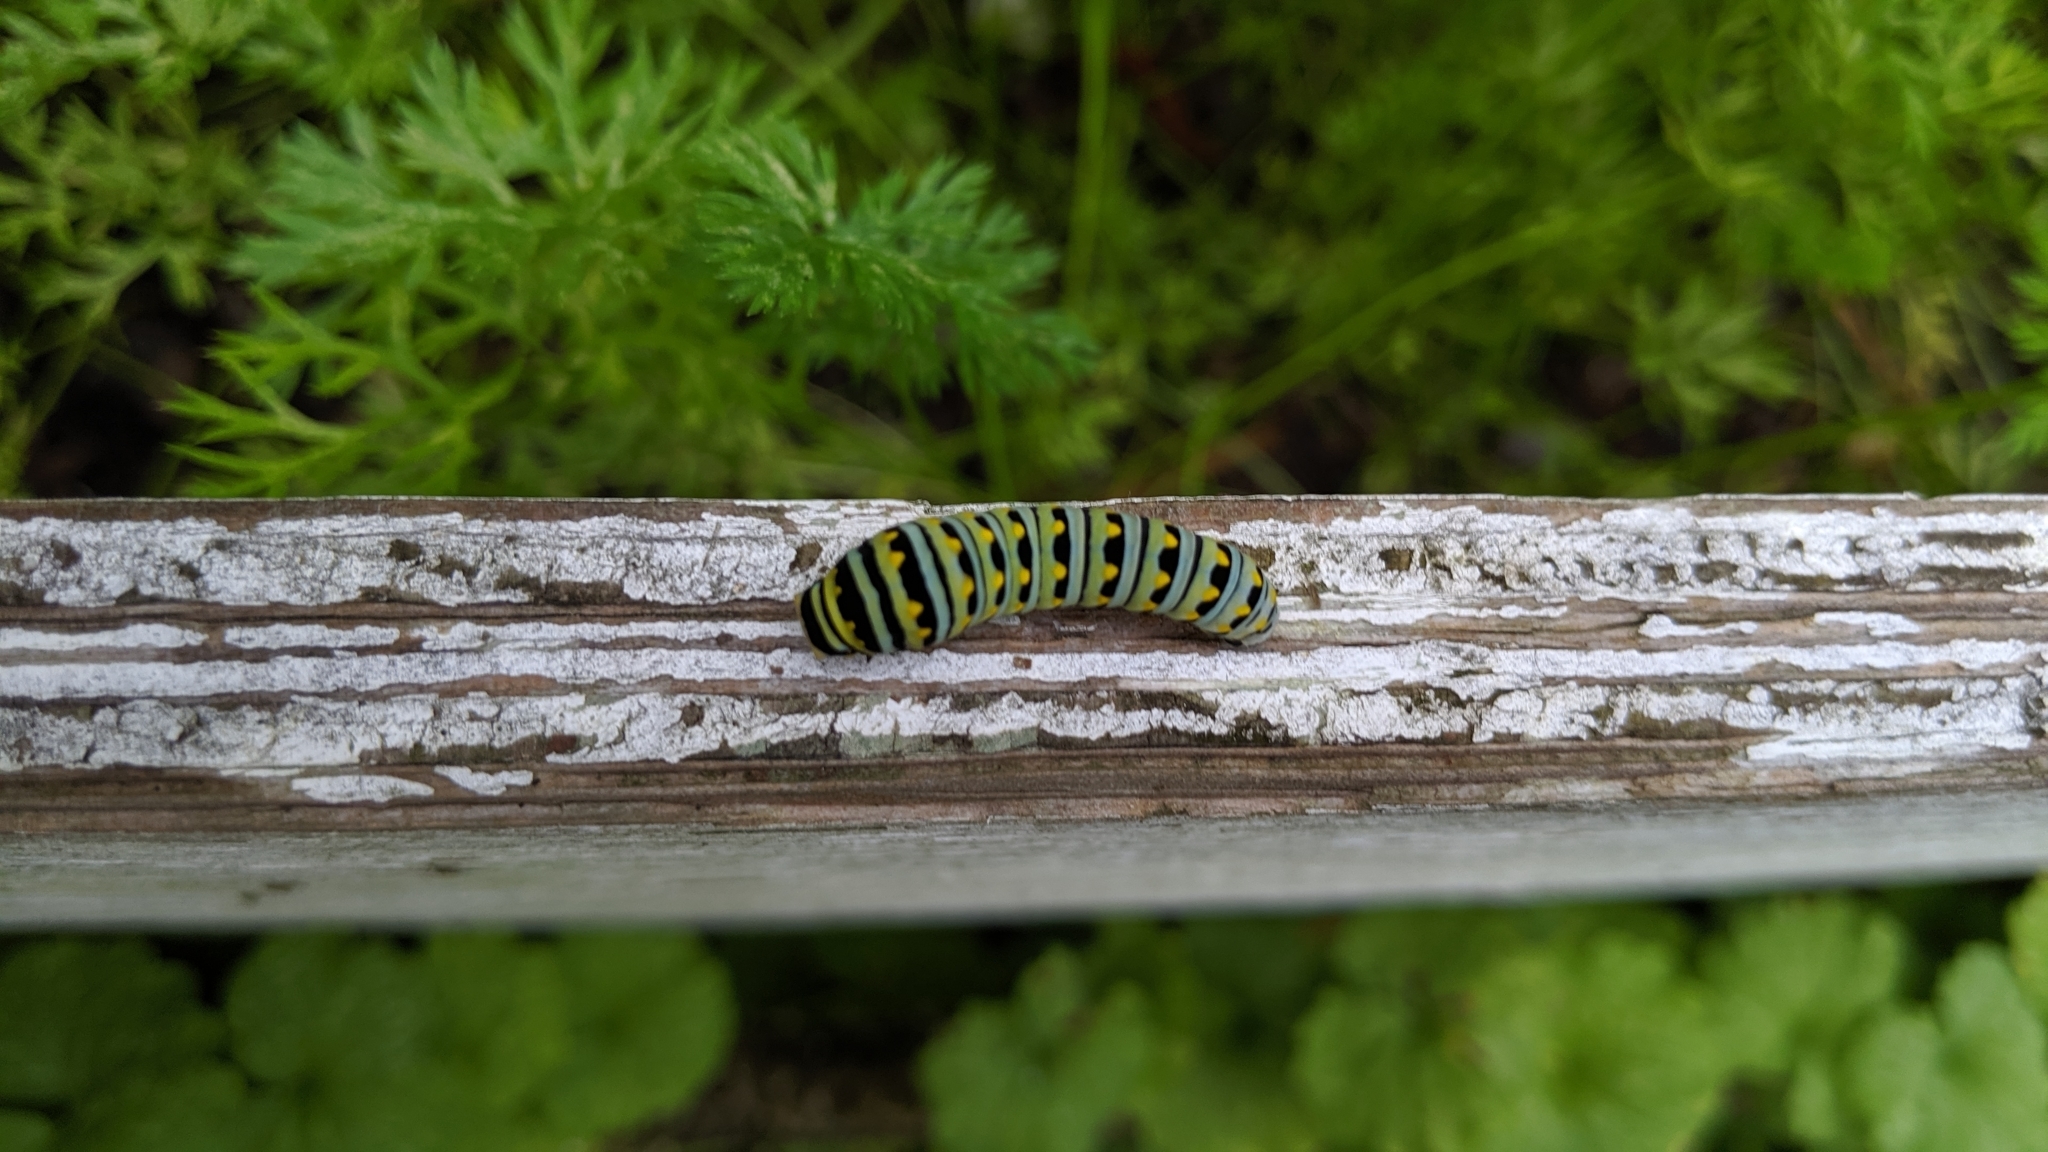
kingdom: Animalia
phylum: Arthropoda
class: Insecta
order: Lepidoptera
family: Papilionidae
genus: Papilio
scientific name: Papilio polyxenes
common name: Black swallowtail
